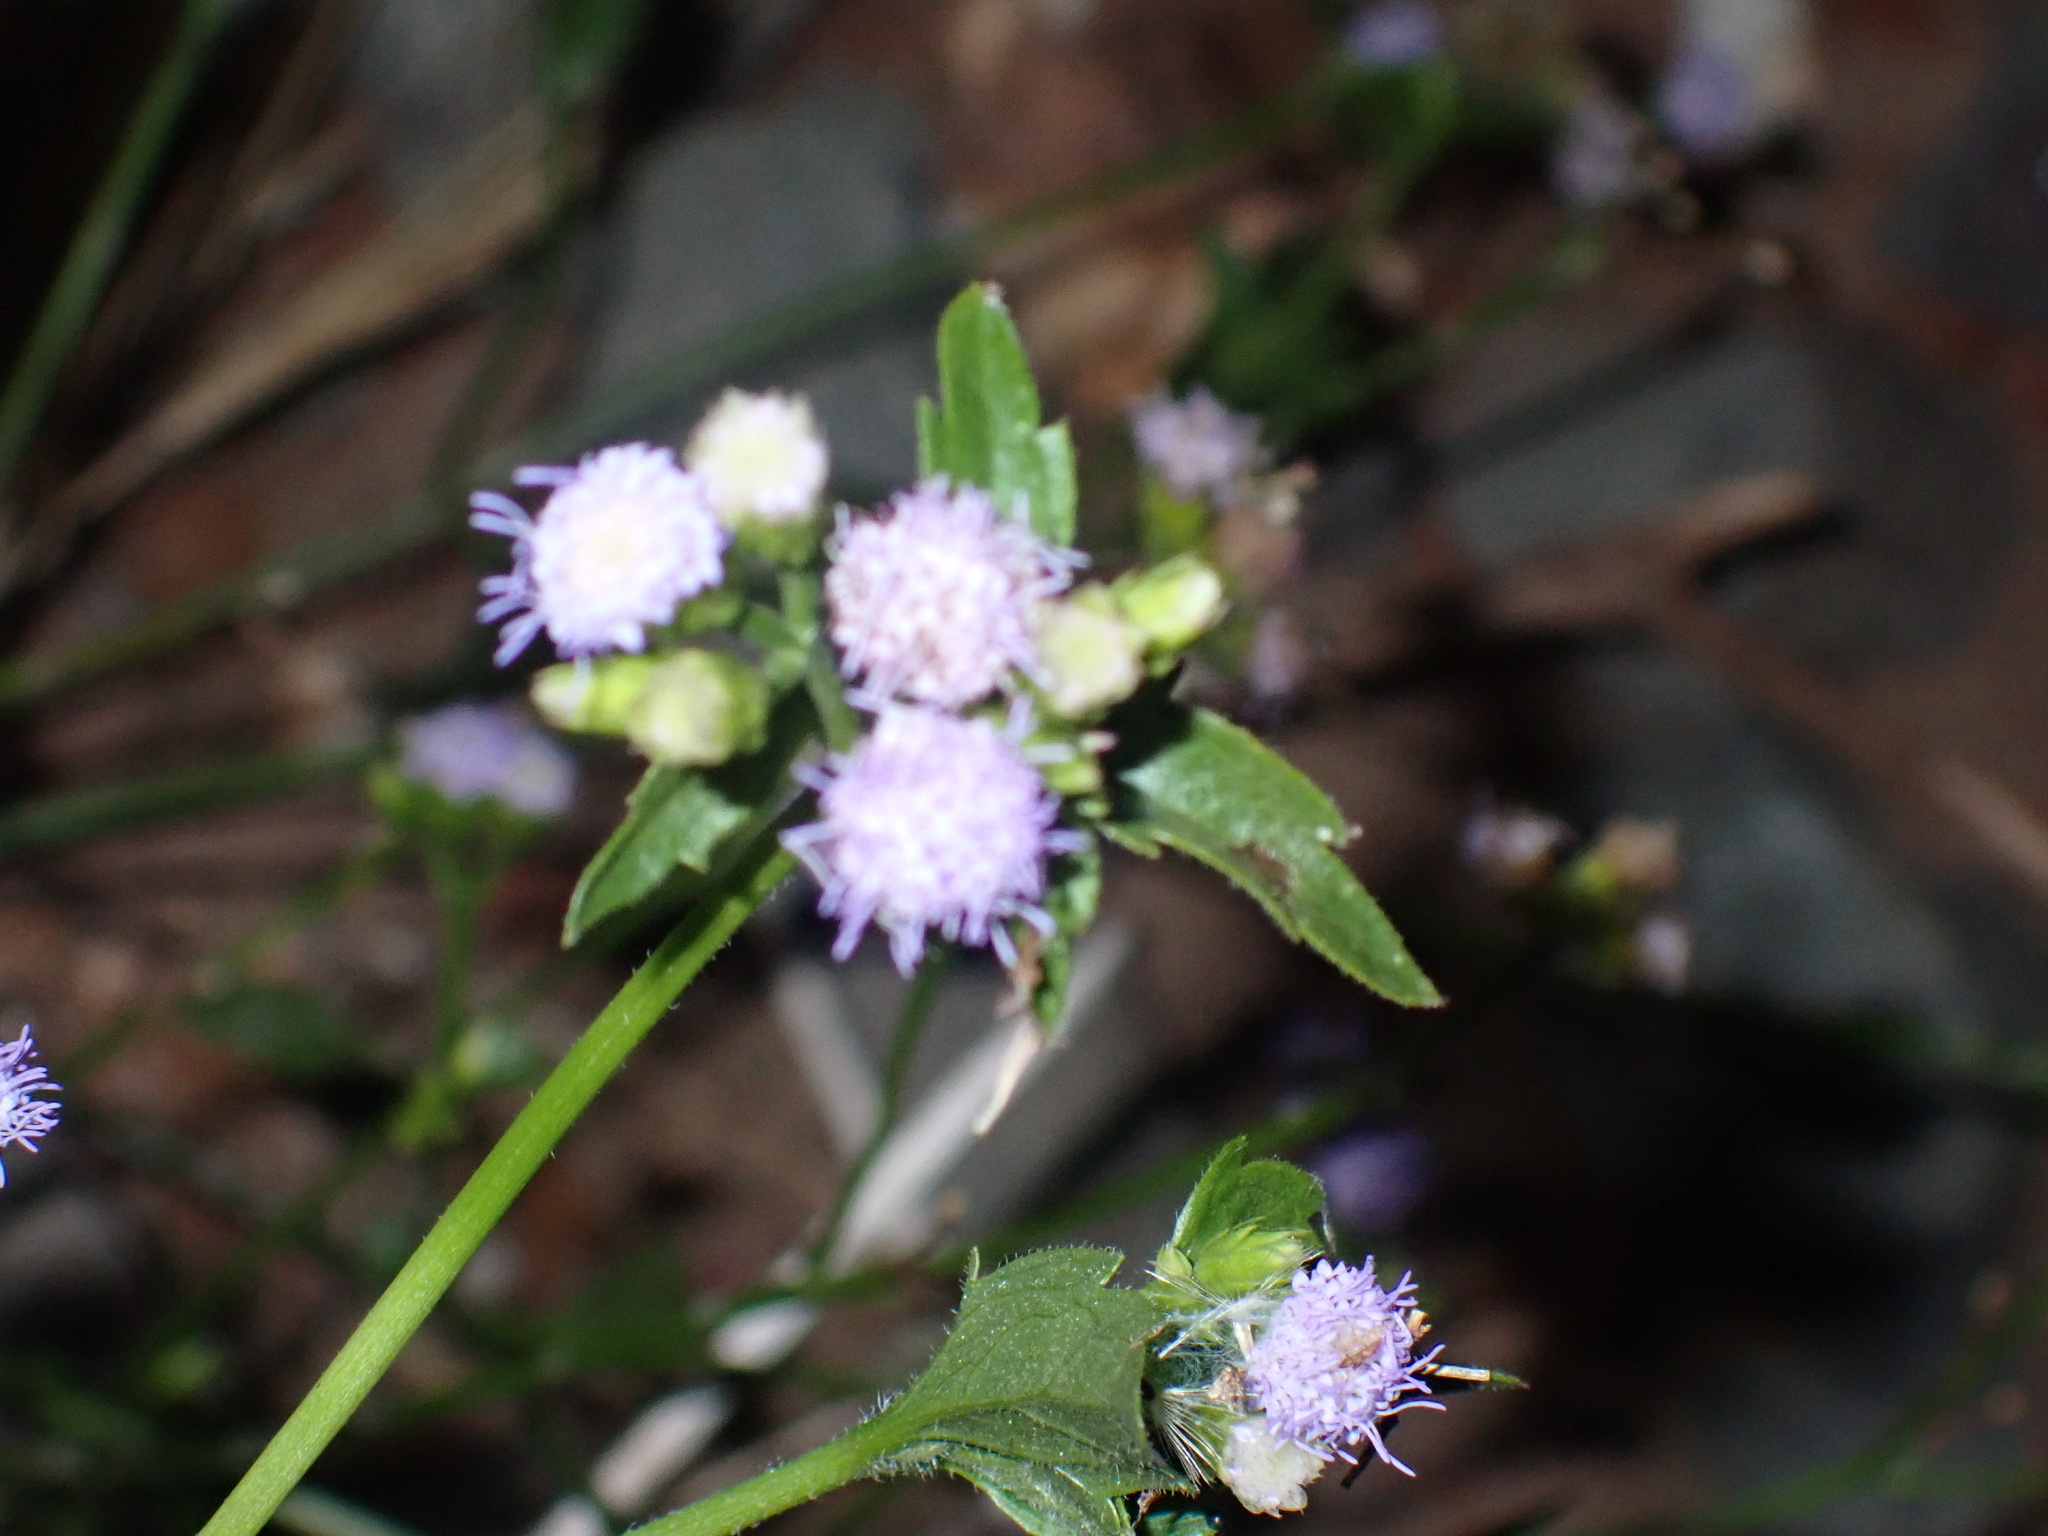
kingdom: Plantae
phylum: Tracheophyta
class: Magnoliopsida
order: Asterales
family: Asteraceae
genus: Praxelis
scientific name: Praxelis clematidea
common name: Praxelis
